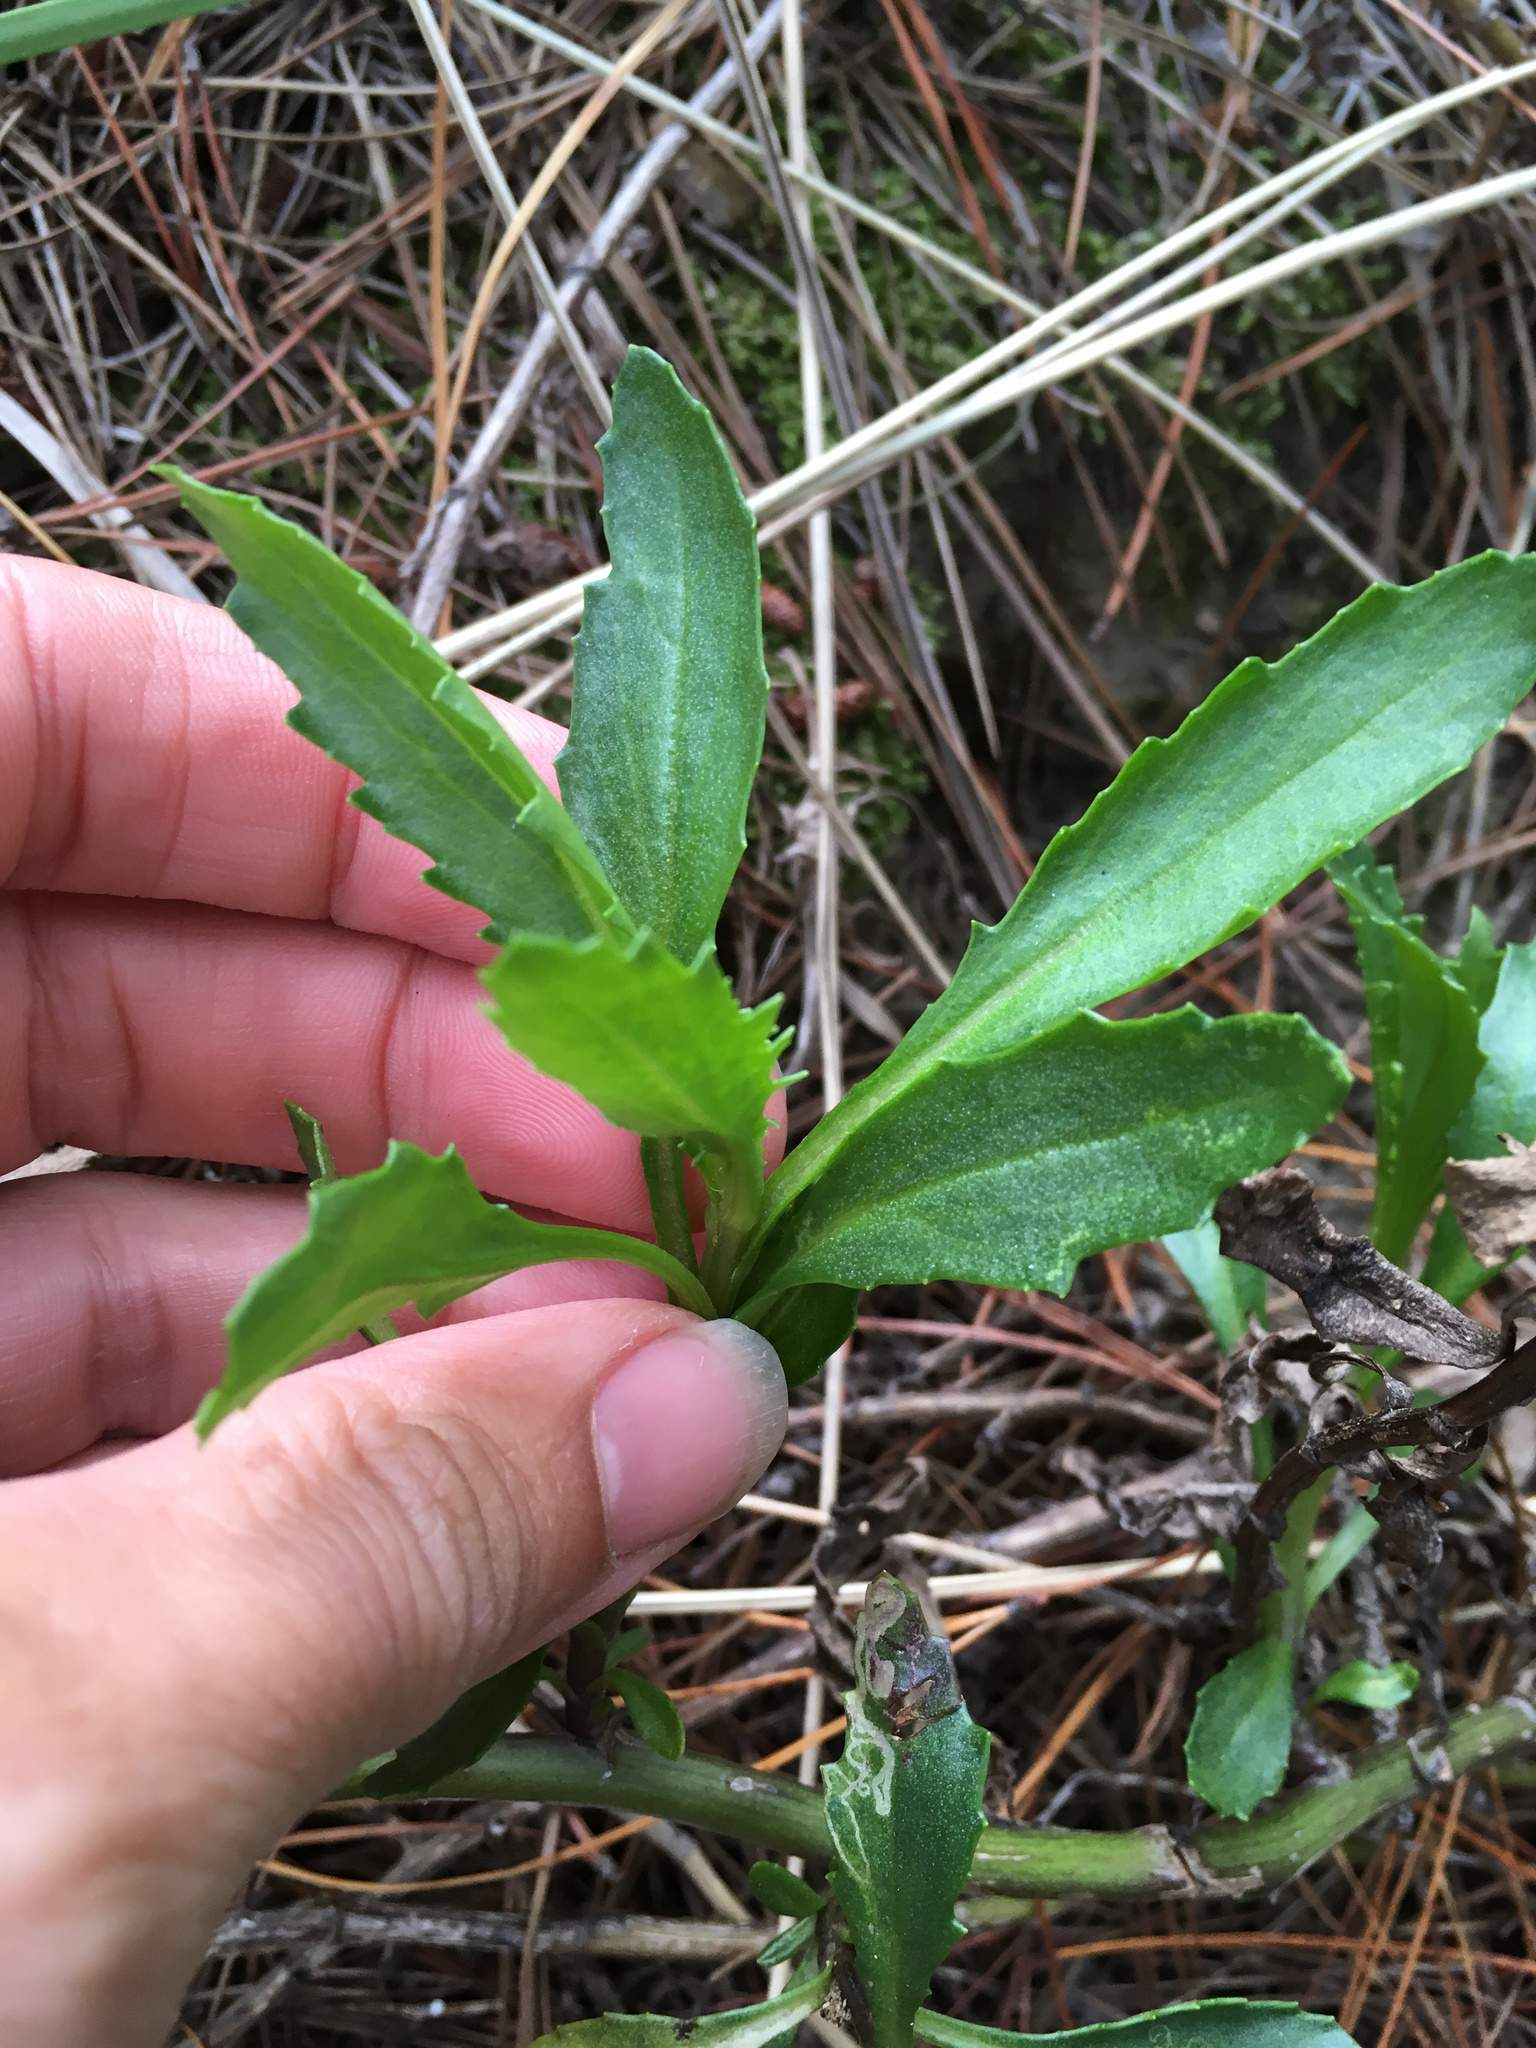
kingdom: Plantae
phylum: Tracheophyta
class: Magnoliopsida
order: Asterales
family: Asteraceae
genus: Senecio
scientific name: Senecio matatini
